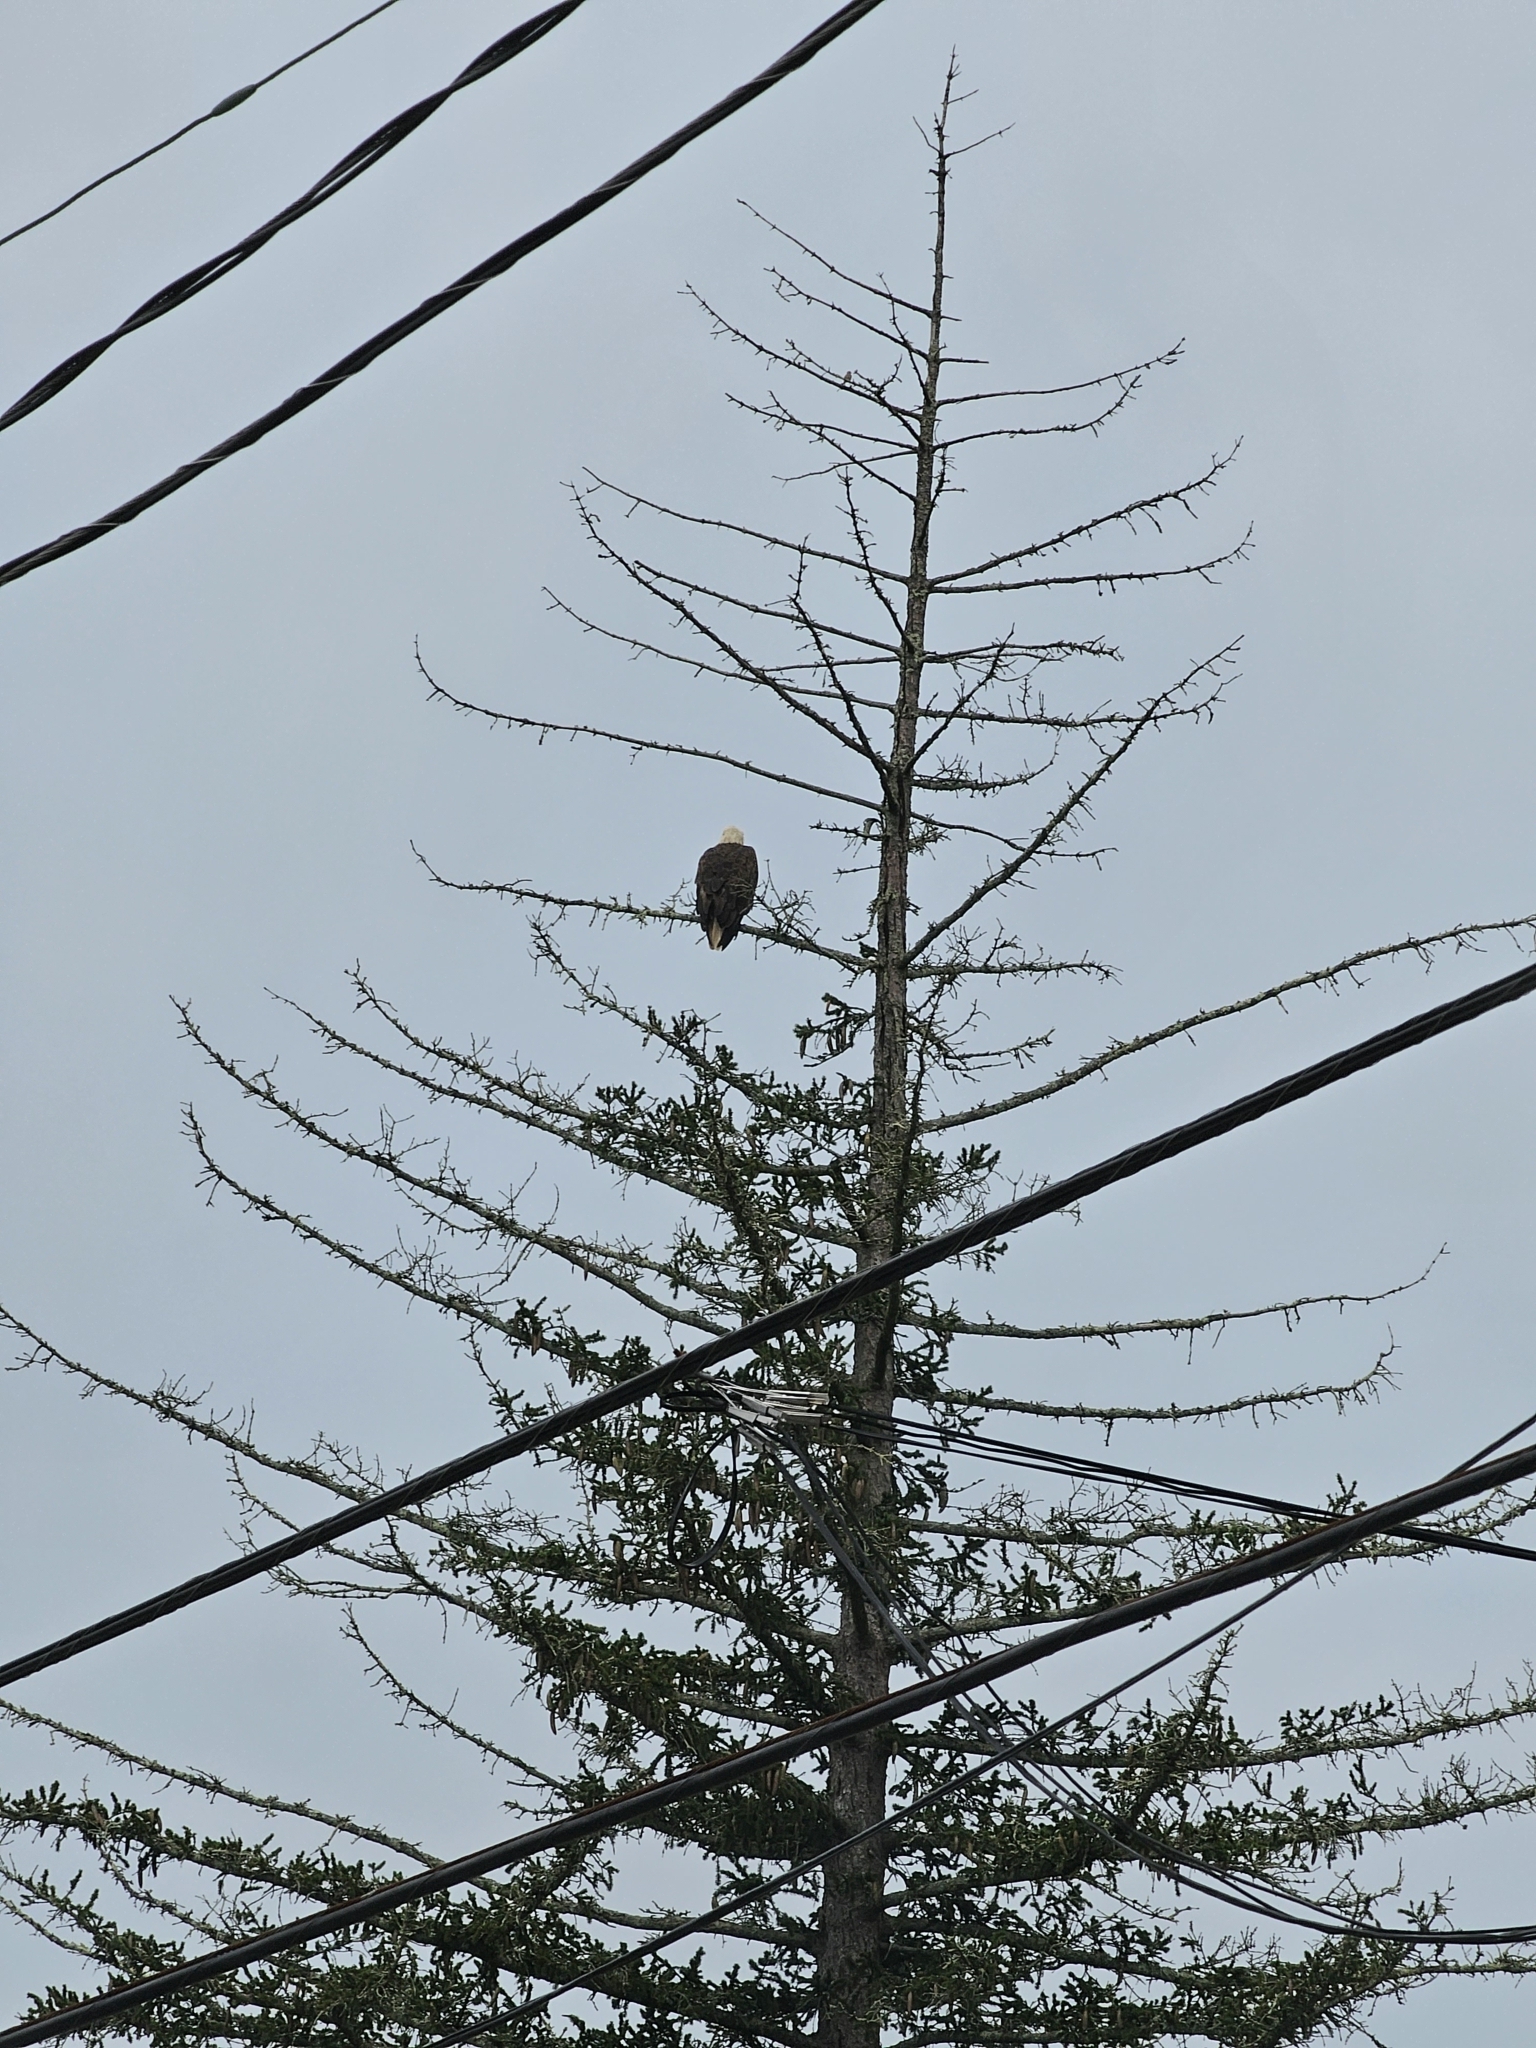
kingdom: Animalia
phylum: Chordata
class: Aves
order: Accipitriformes
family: Accipitridae
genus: Haliaeetus
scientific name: Haliaeetus leucocephalus
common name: Bald eagle
